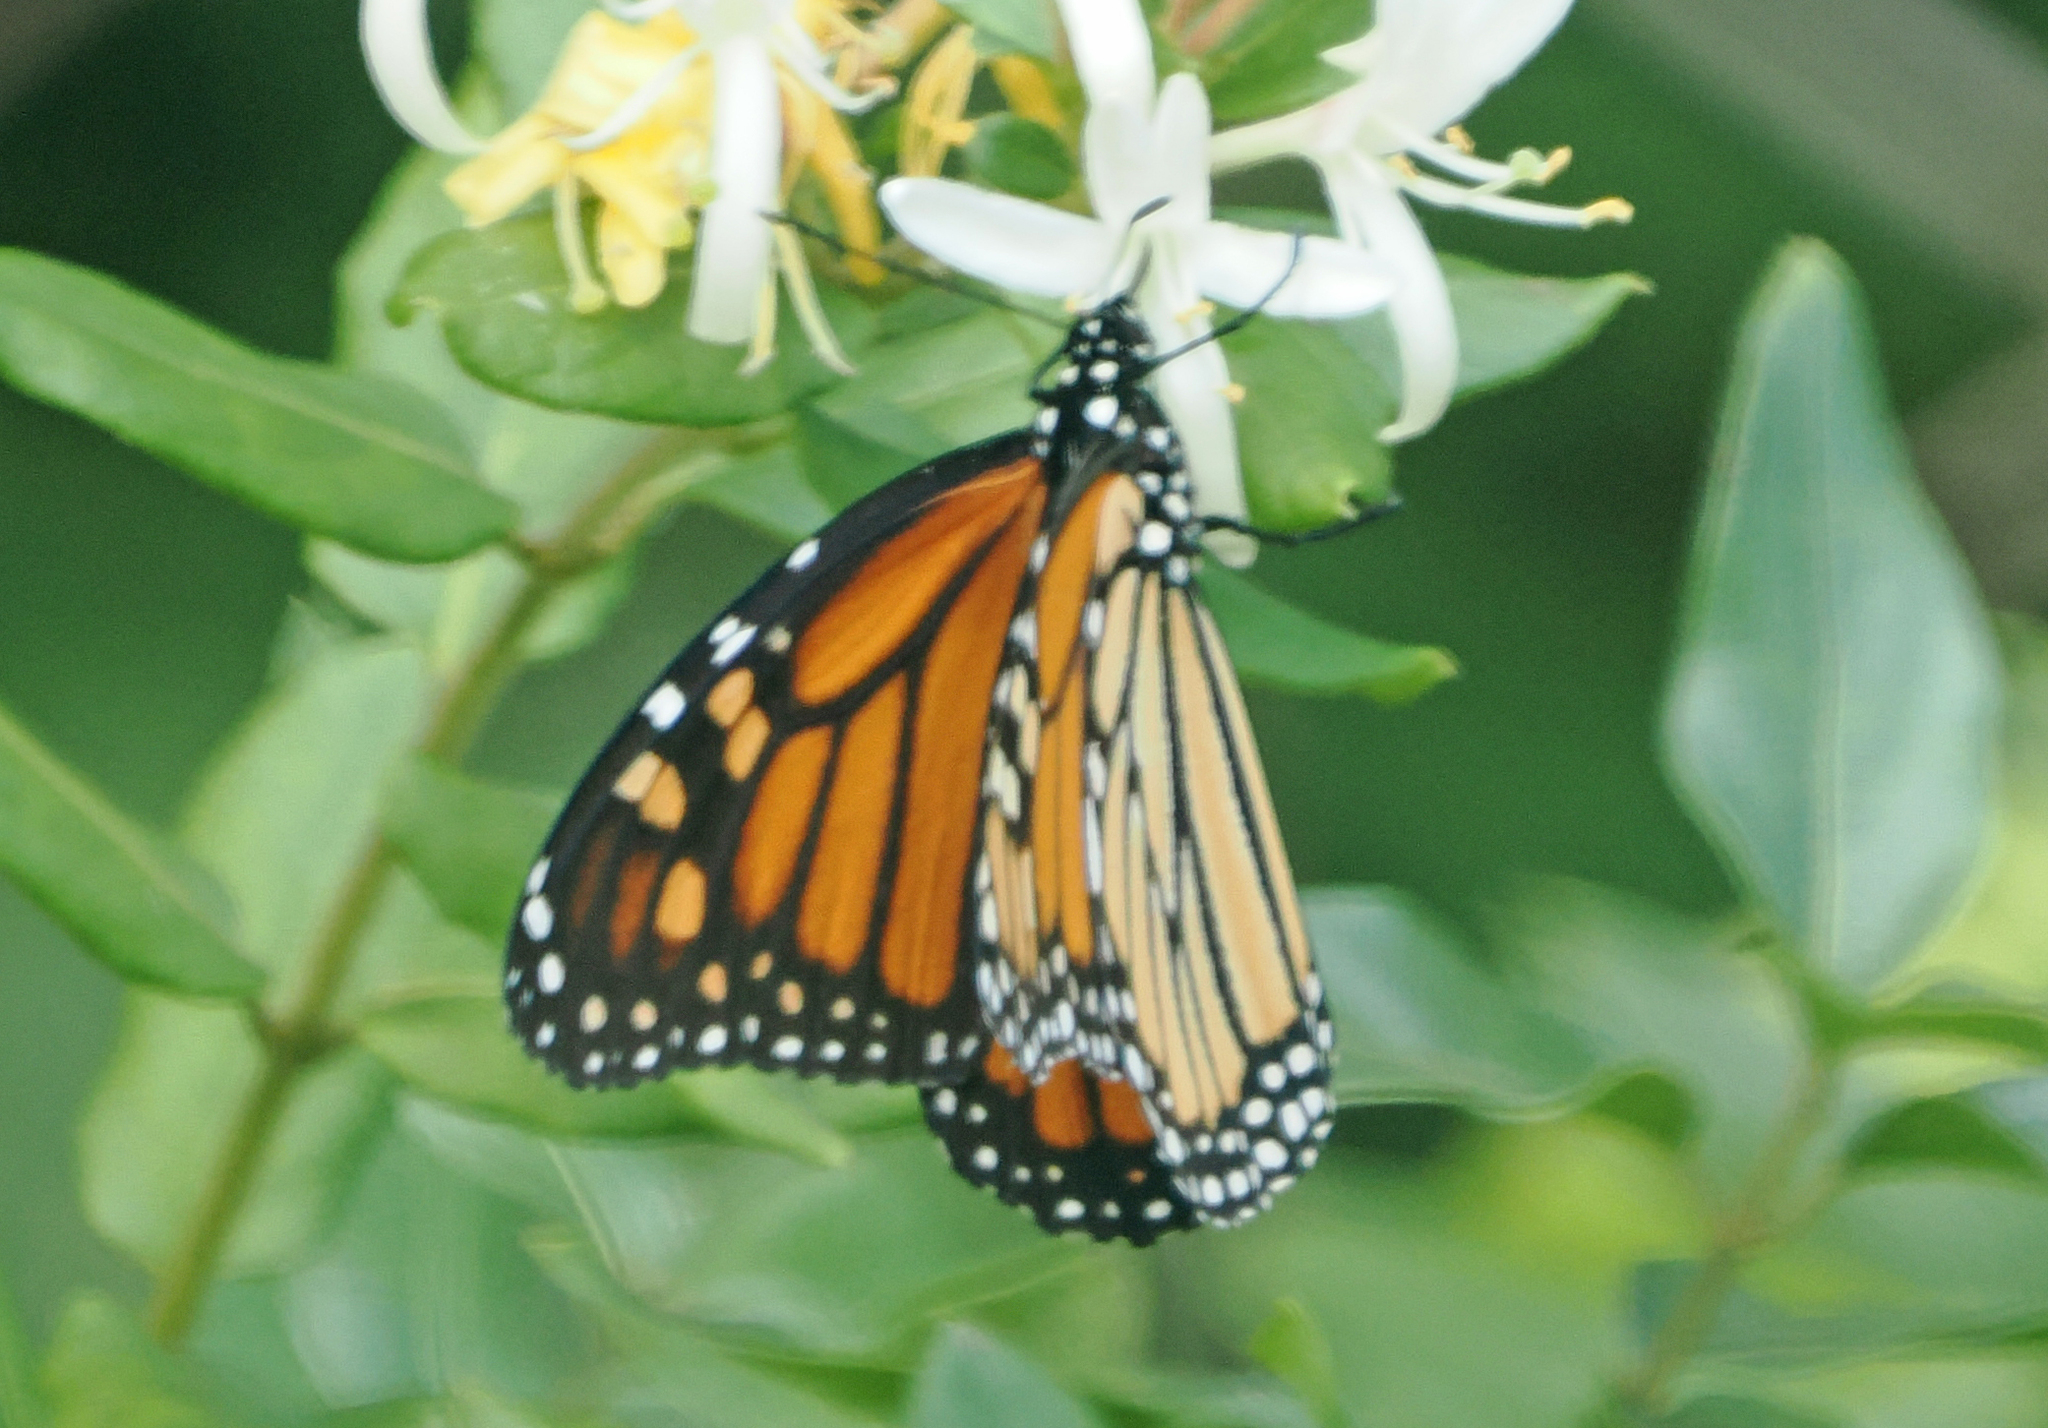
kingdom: Animalia
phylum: Arthropoda
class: Insecta
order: Lepidoptera
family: Nymphalidae
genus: Danaus
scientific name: Danaus plexippus
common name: Monarch
